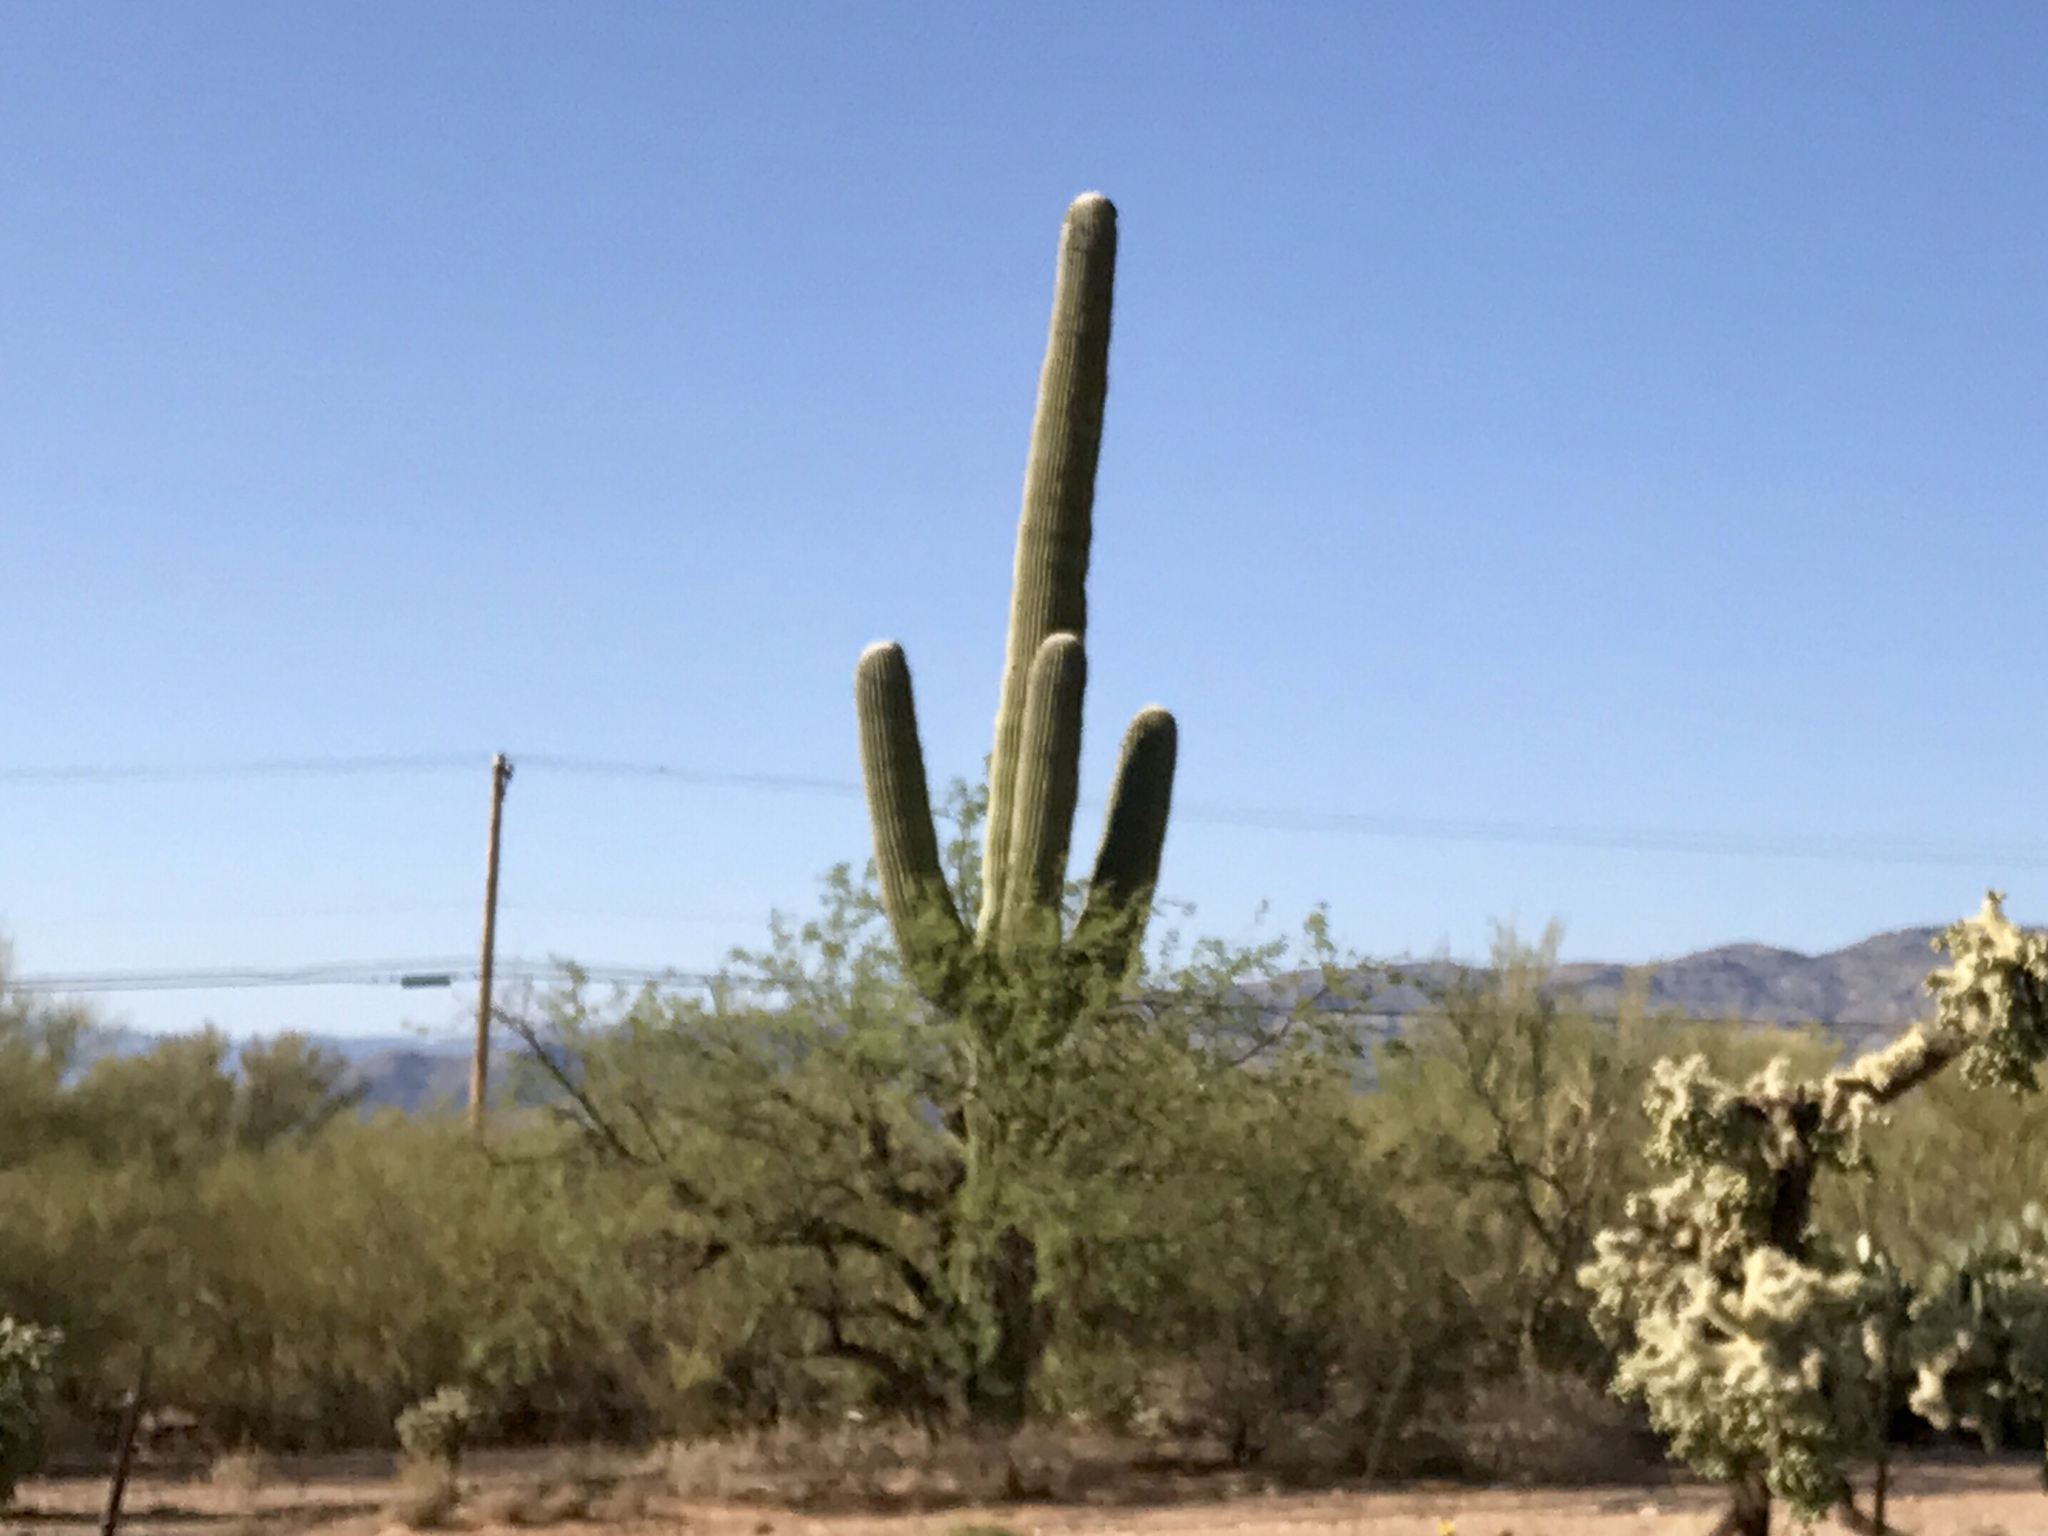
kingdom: Plantae
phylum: Tracheophyta
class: Magnoliopsida
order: Caryophyllales
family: Cactaceae
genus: Carnegiea
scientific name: Carnegiea gigantea
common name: Saguaro
